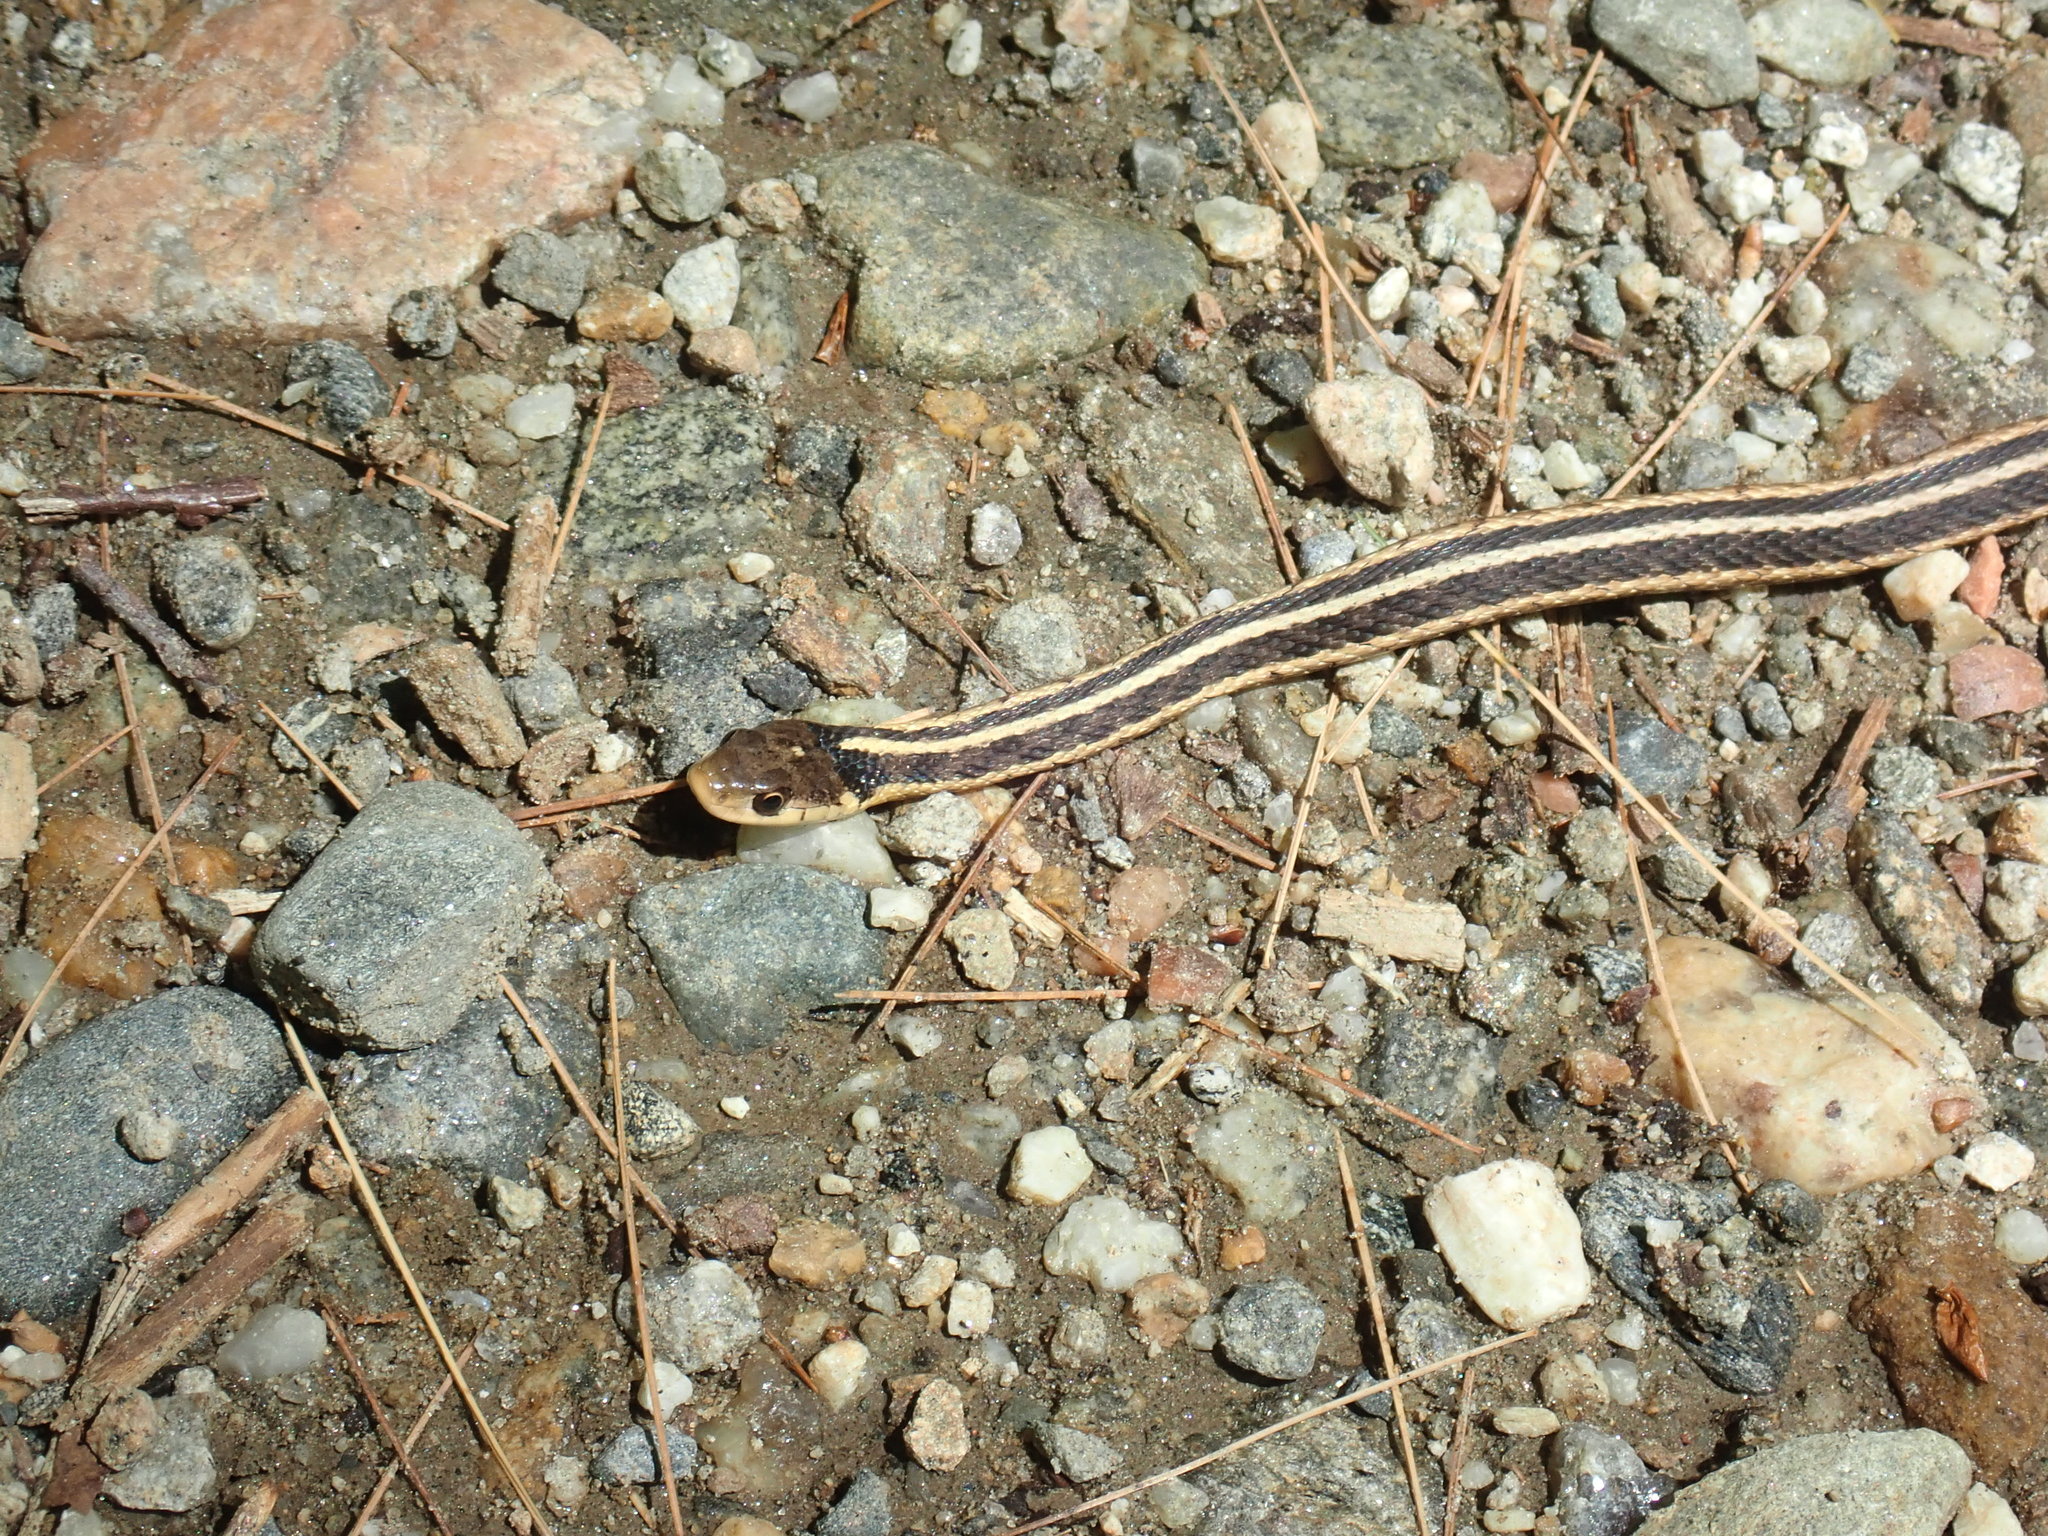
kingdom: Animalia
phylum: Chordata
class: Squamata
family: Colubridae
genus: Thamnophis
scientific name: Thamnophis sirtalis
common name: Common garter snake
